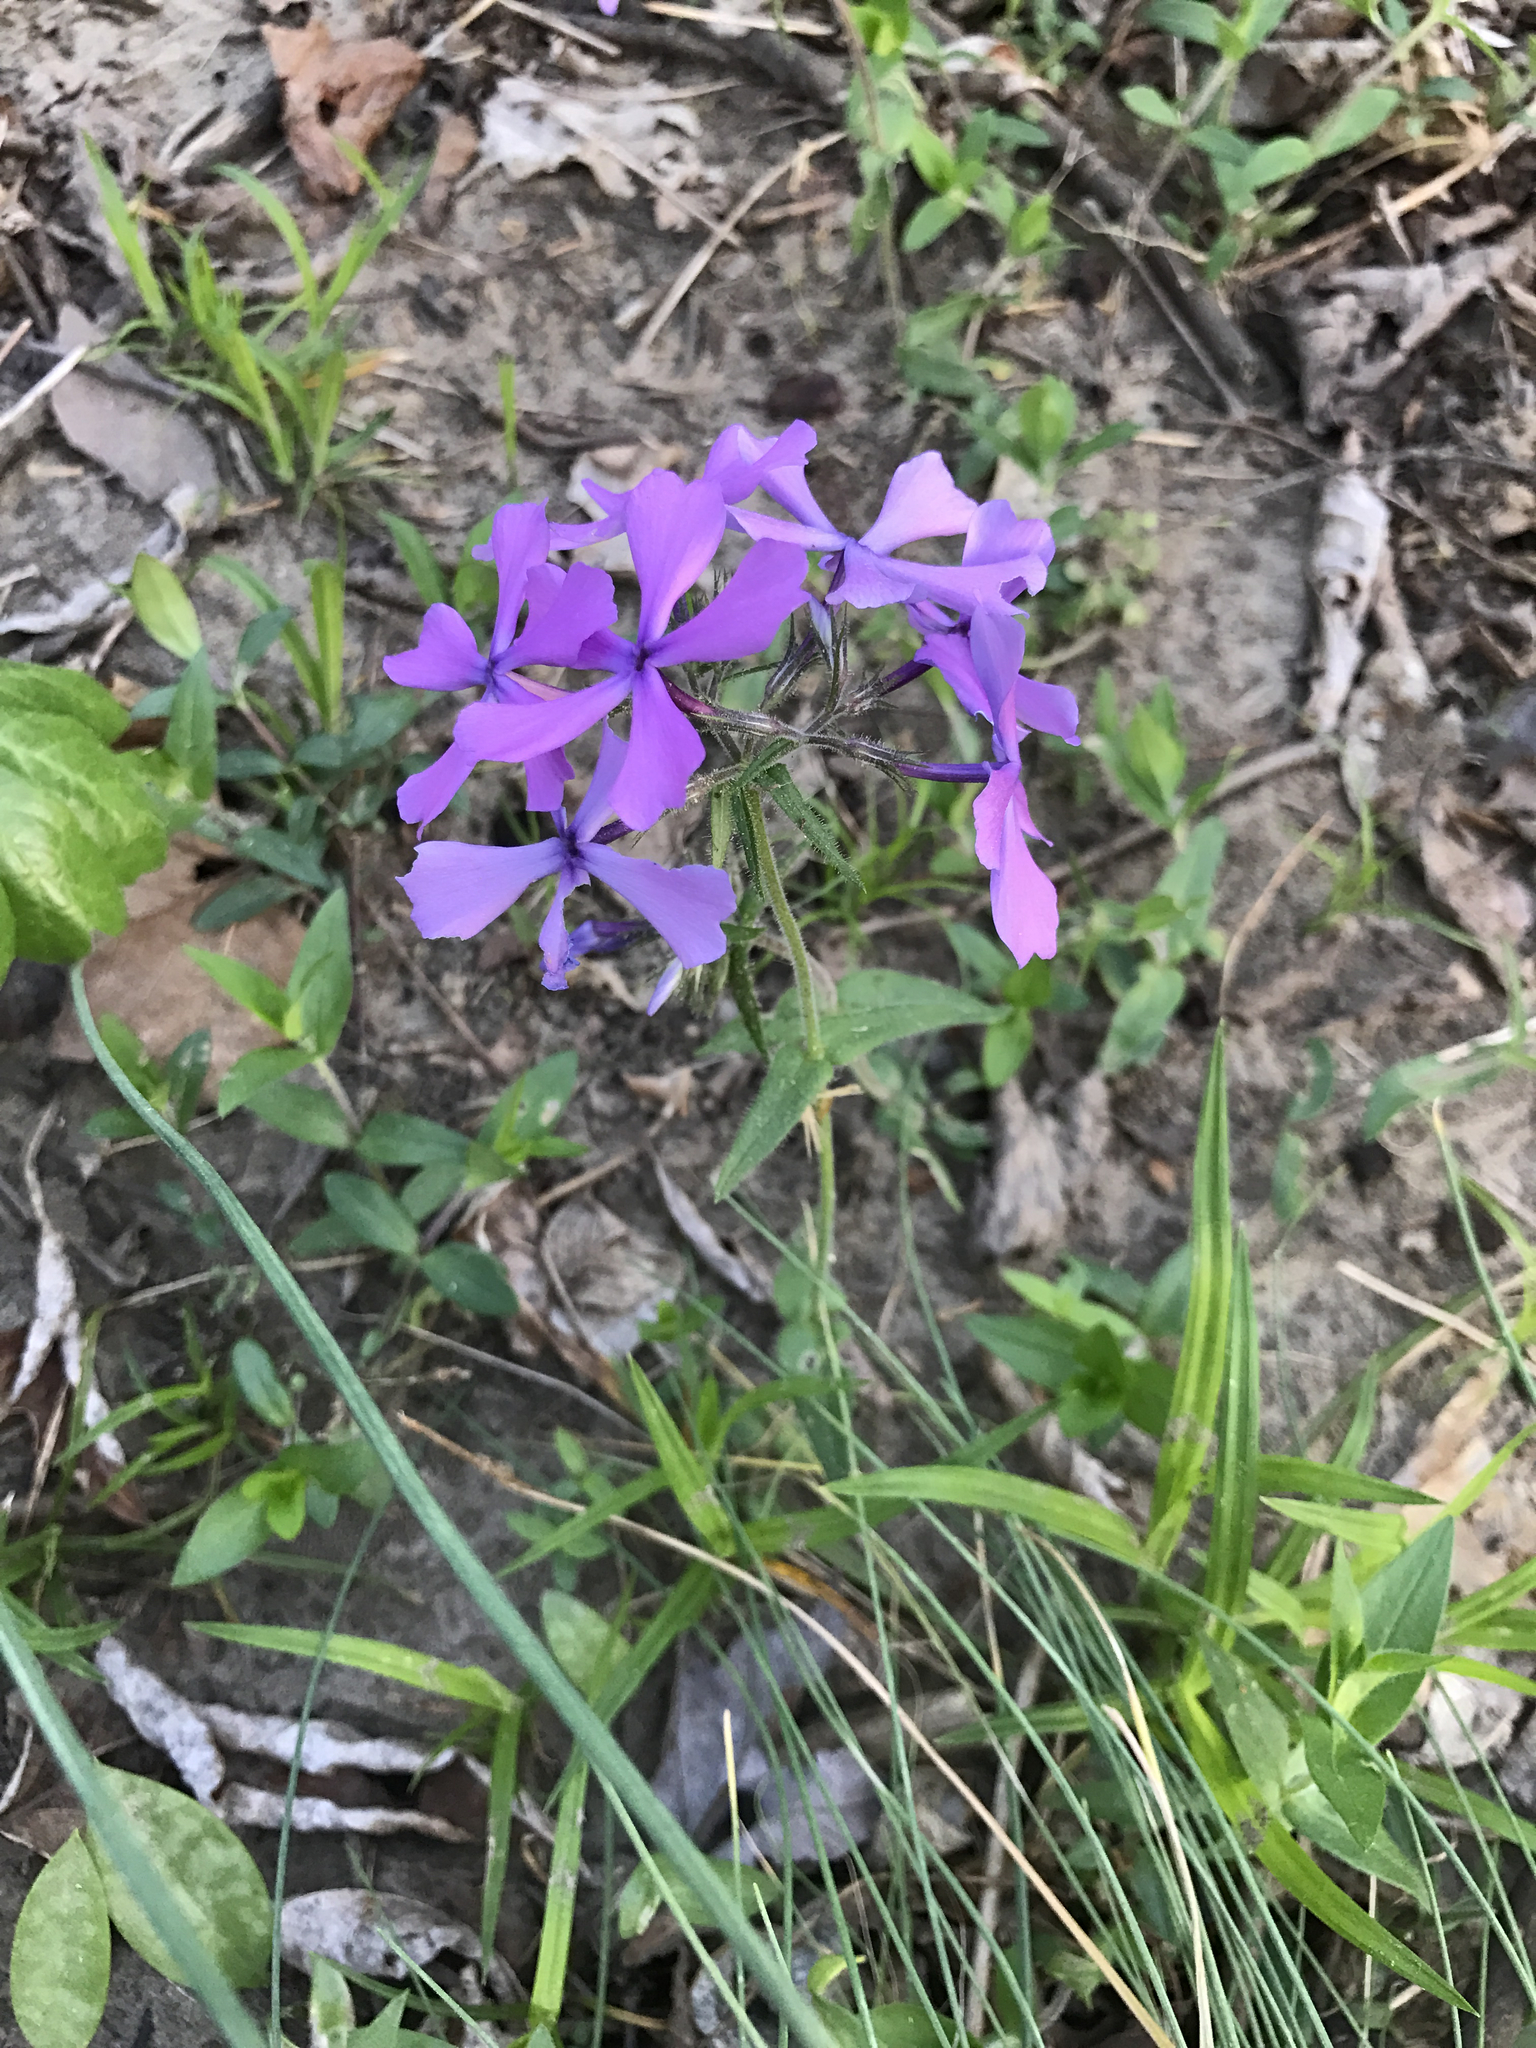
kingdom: Plantae
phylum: Tracheophyta
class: Magnoliopsida
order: Ericales
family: Polemoniaceae
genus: Phlox
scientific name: Phlox divaricata
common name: Blue phlox
